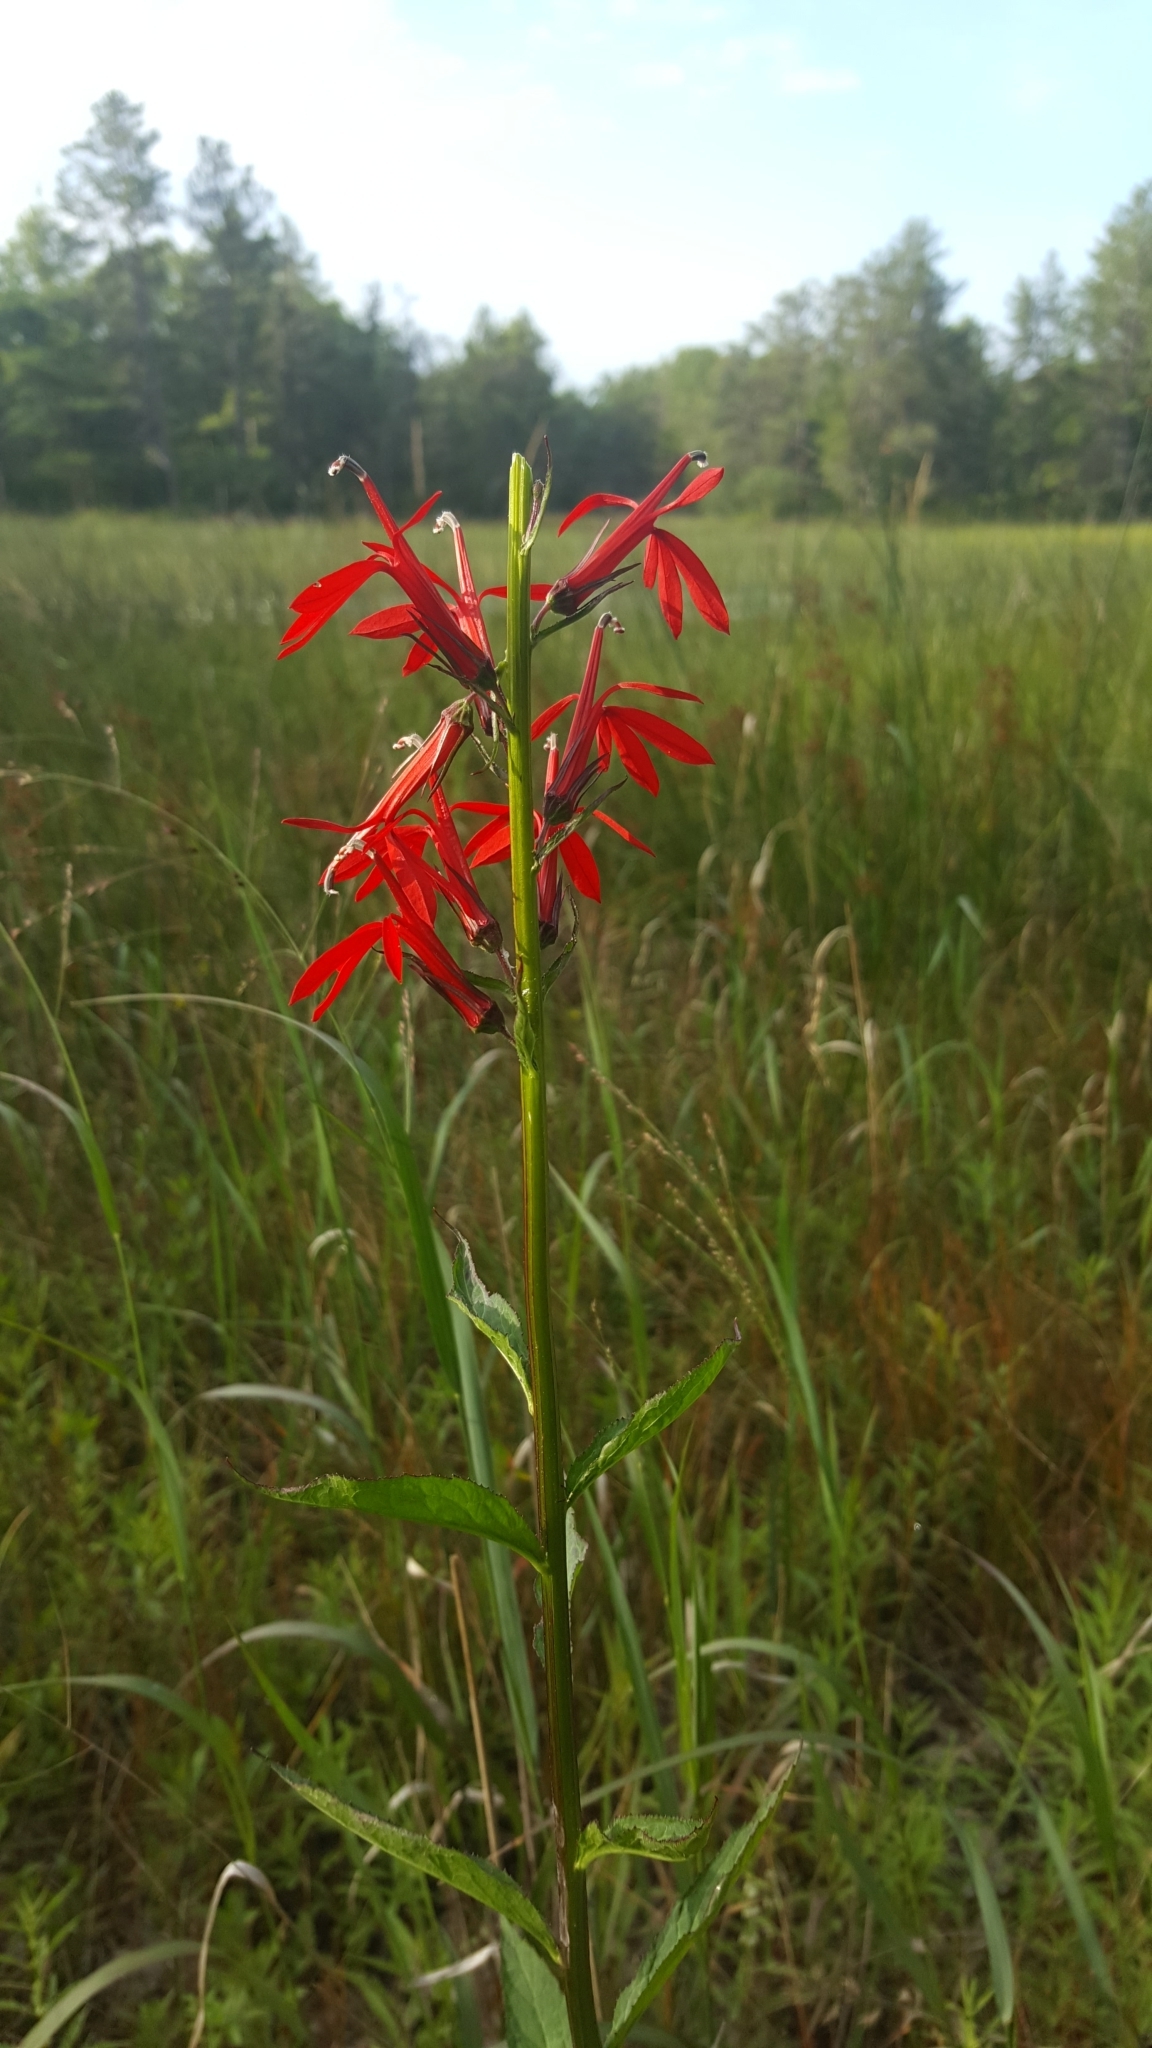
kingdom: Plantae
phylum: Tracheophyta
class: Magnoliopsida
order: Asterales
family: Campanulaceae
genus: Lobelia
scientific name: Lobelia cardinalis
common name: Cardinal flower
